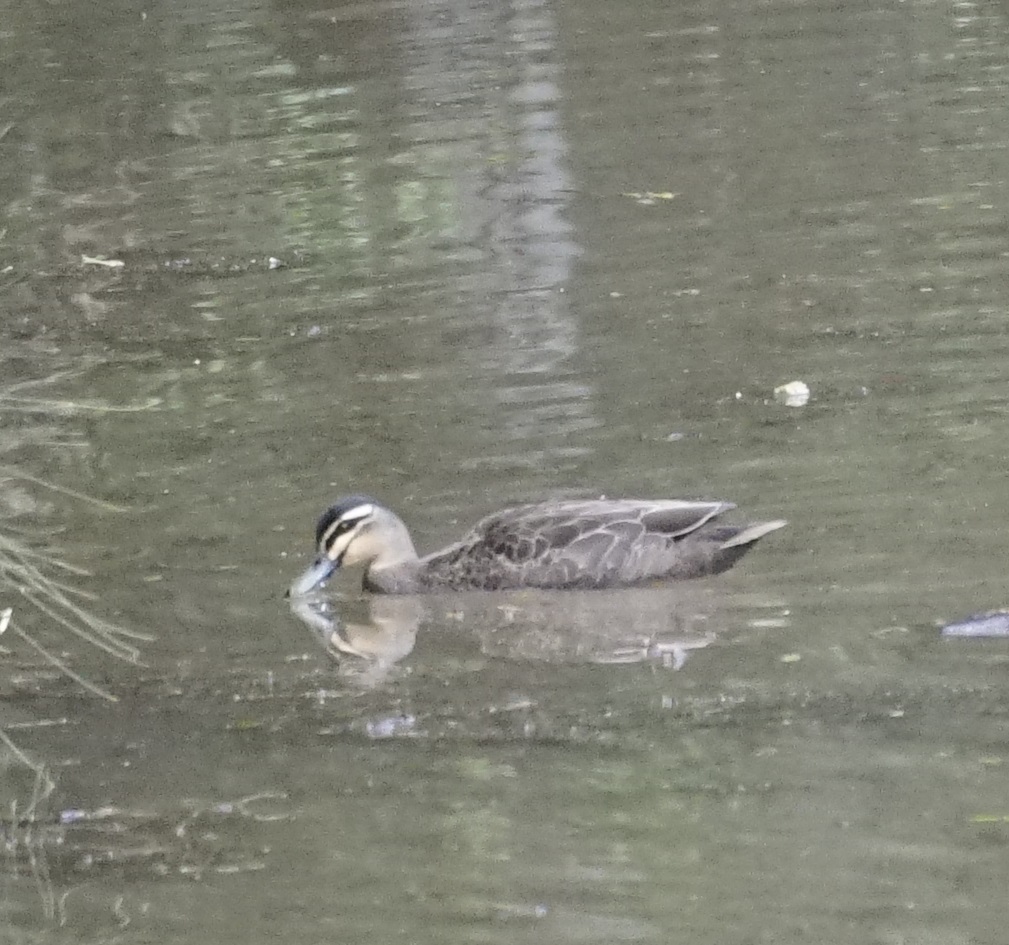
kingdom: Animalia
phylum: Chordata
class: Aves
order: Anseriformes
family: Anatidae
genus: Anas
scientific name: Anas superciliosa
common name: Pacific black duck
